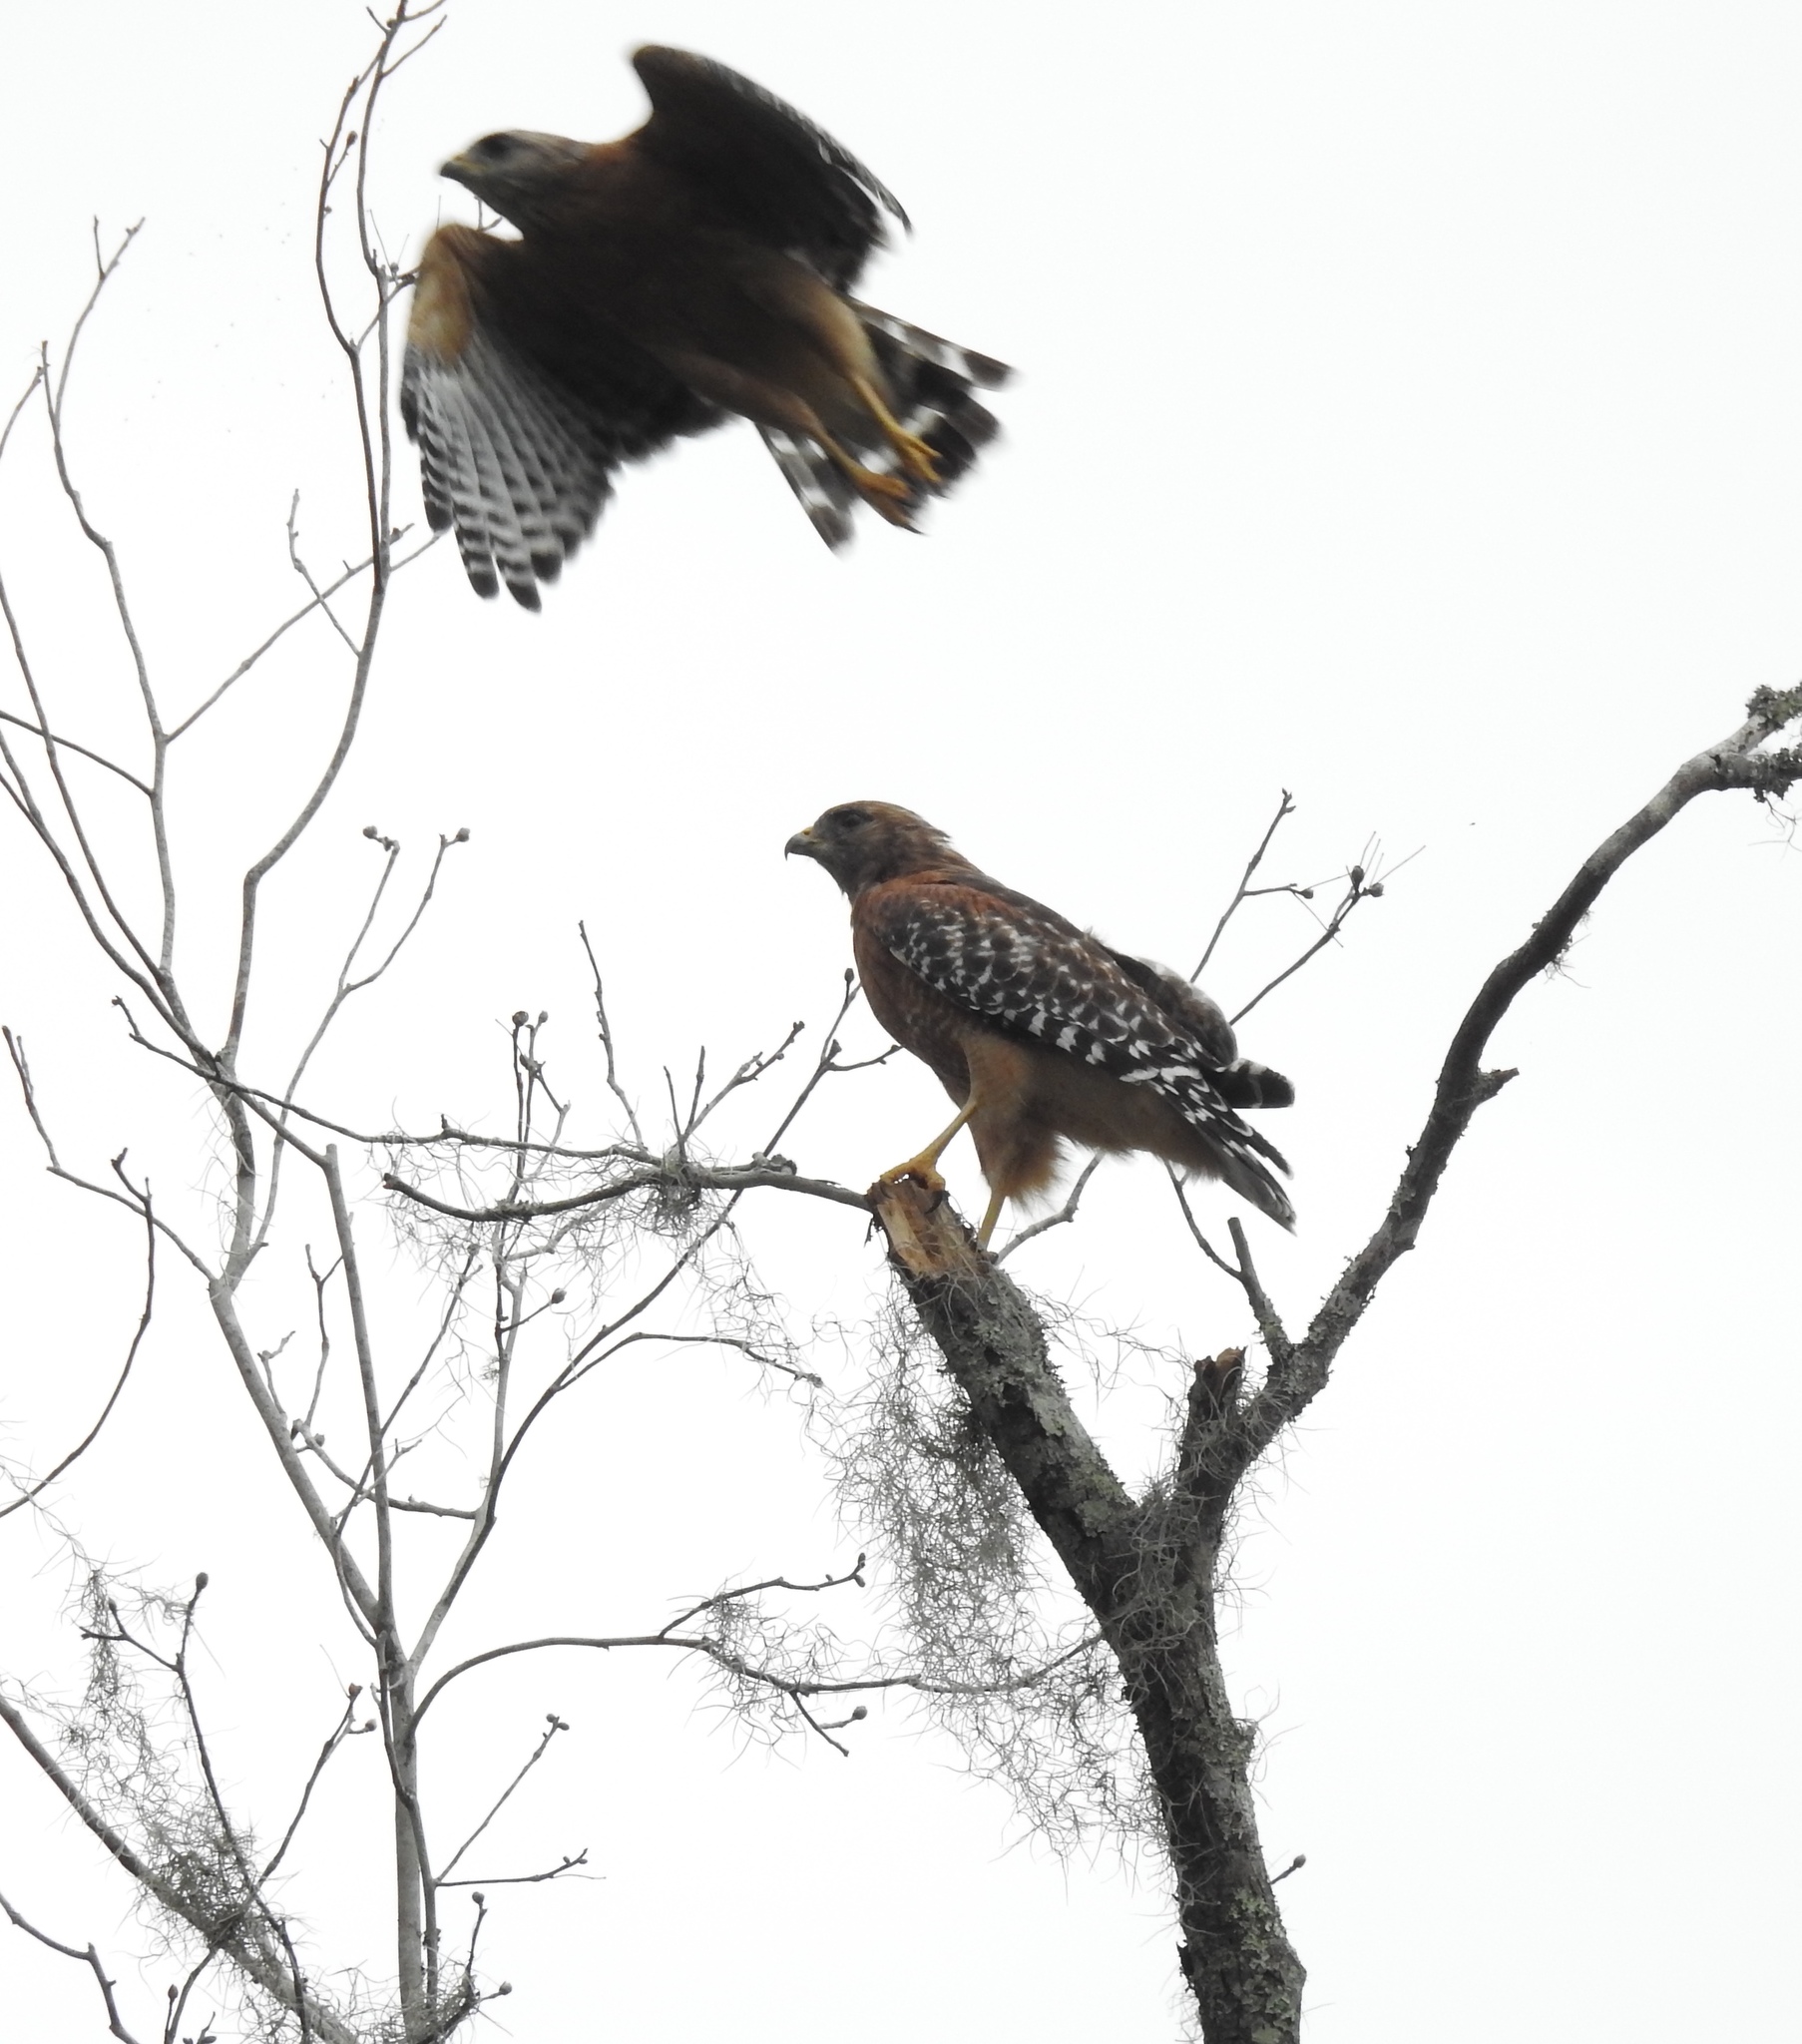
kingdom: Animalia
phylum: Chordata
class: Aves
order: Accipitriformes
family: Accipitridae
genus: Buteo
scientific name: Buteo lineatus
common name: Red-shouldered hawk
